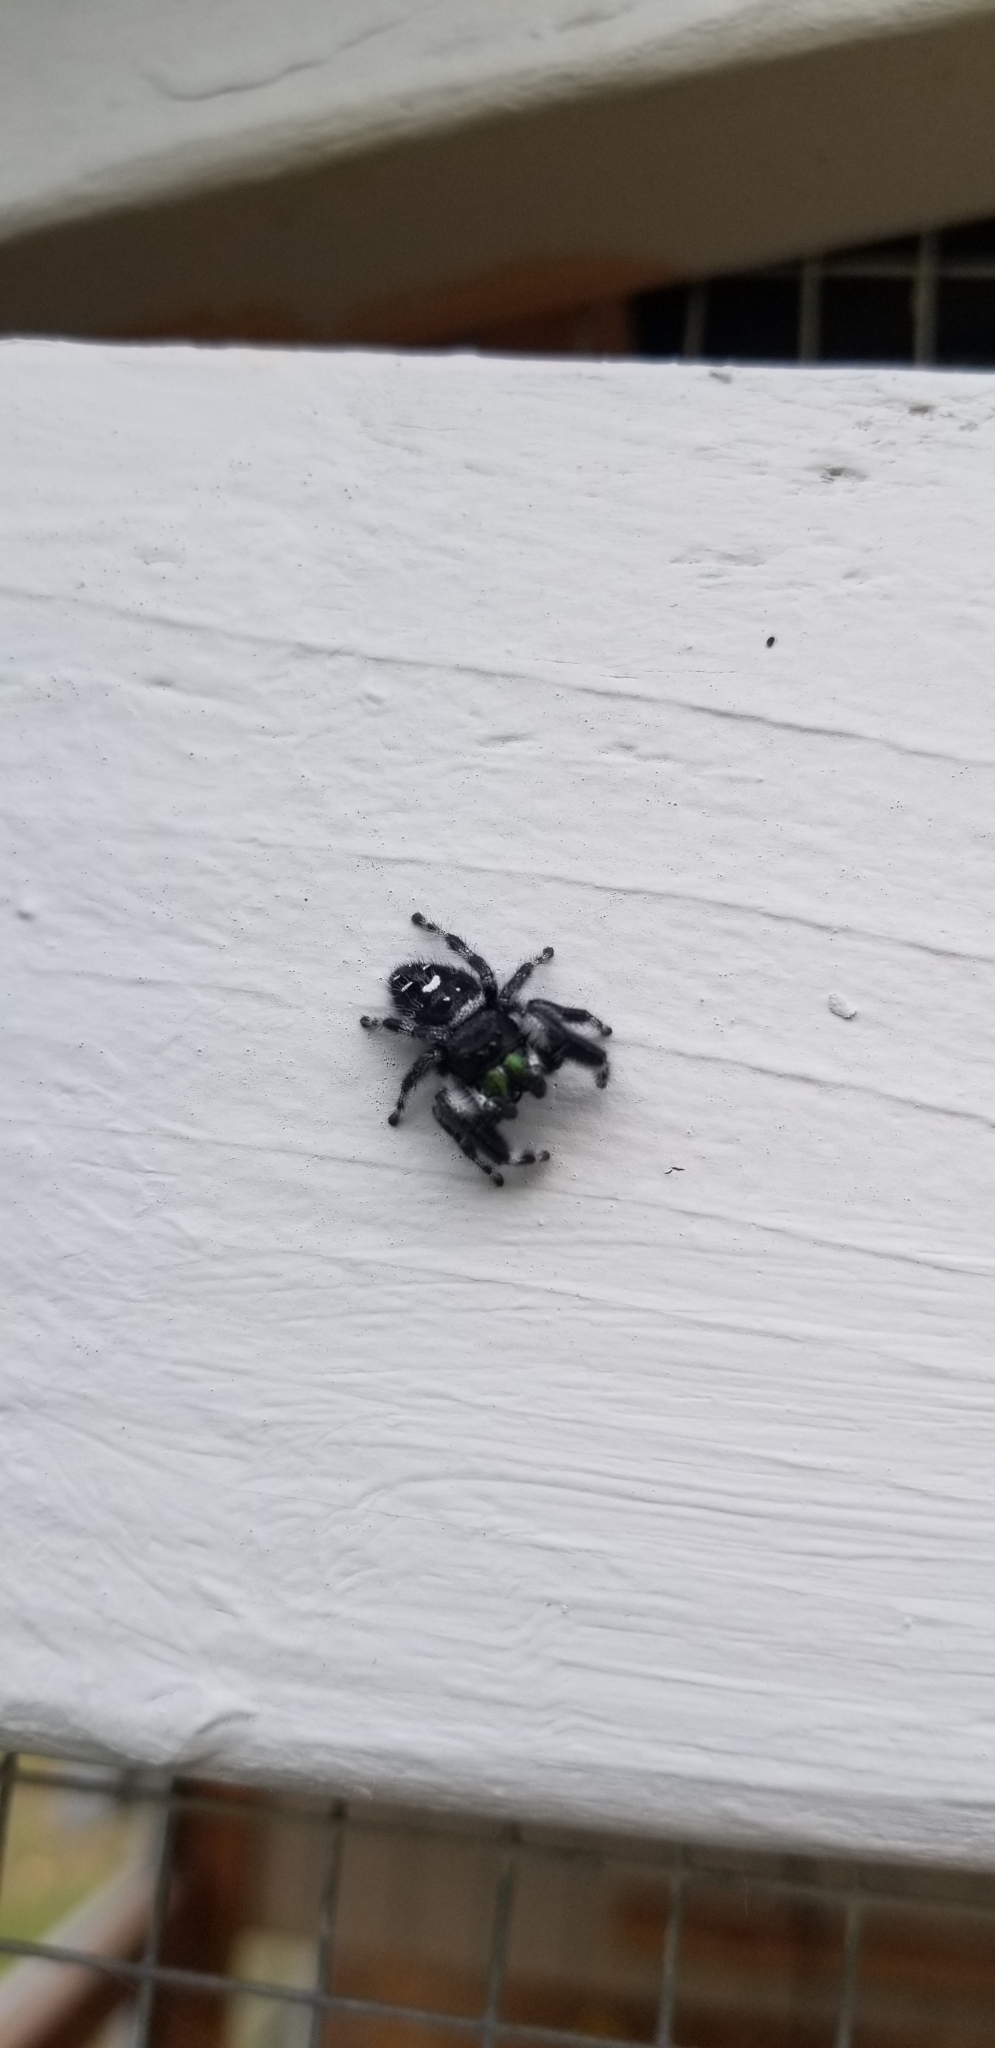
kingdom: Animalia
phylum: Arthropoda
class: Arachnida
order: Araneae
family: Salticidae
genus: Phidippus
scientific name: Phidippus audax
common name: Bold jumper
